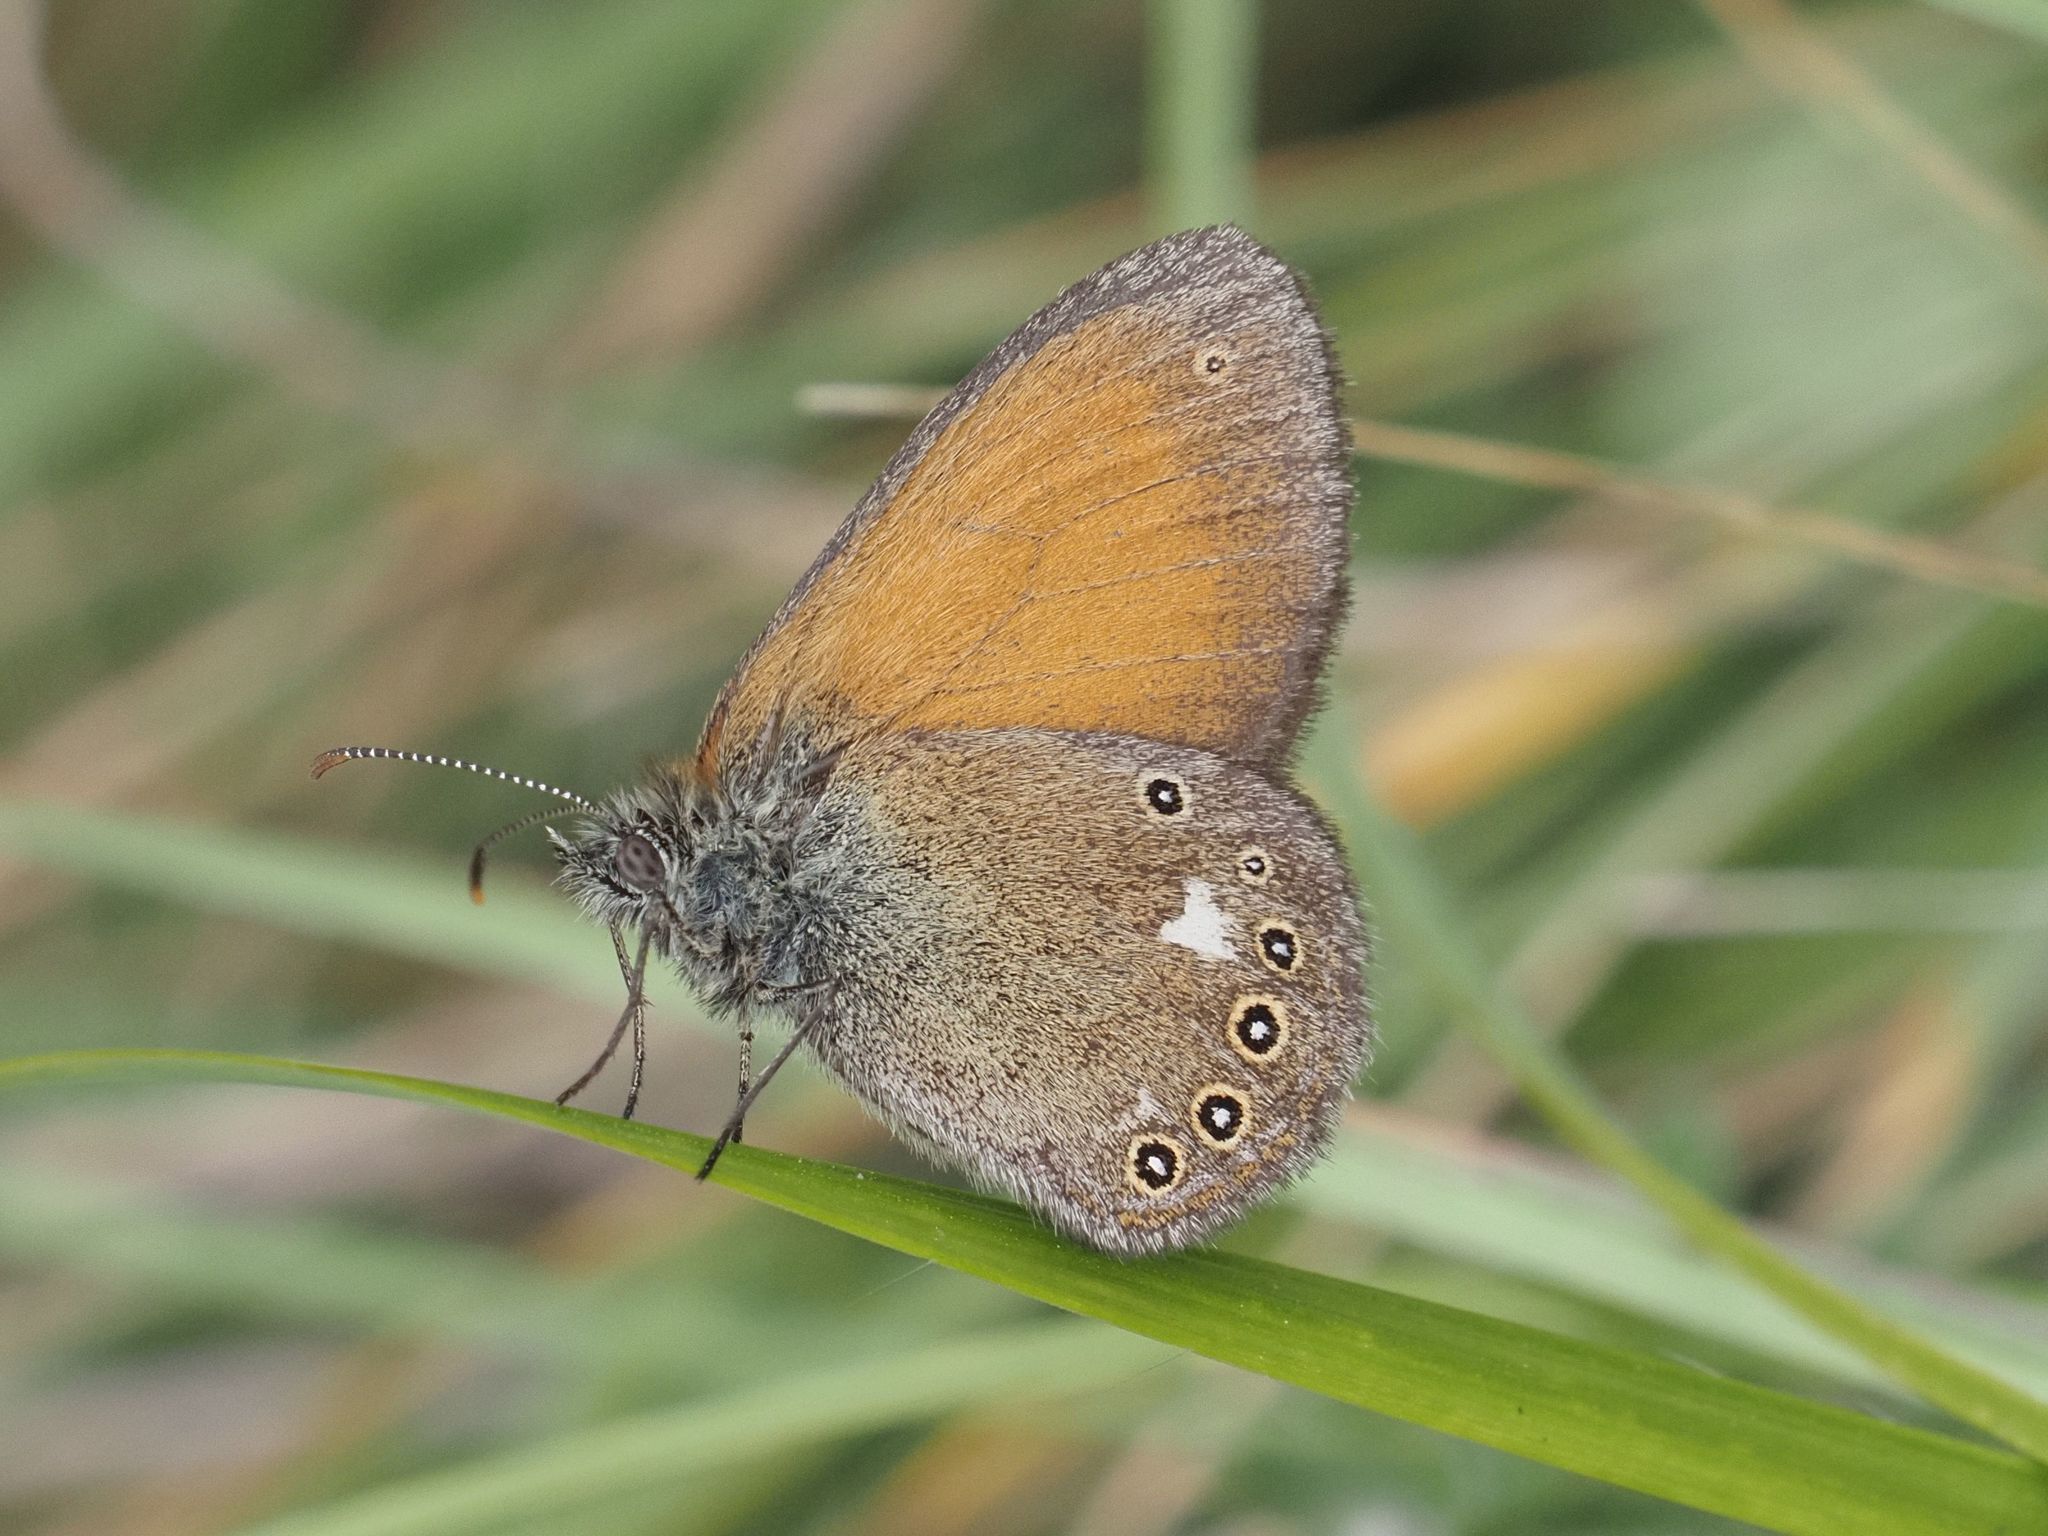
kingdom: Animalia
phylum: Arthropoda
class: Insecta
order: Lepidoptera
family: Nymphalidae
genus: Coenonympha
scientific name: Coenonympha iphis
